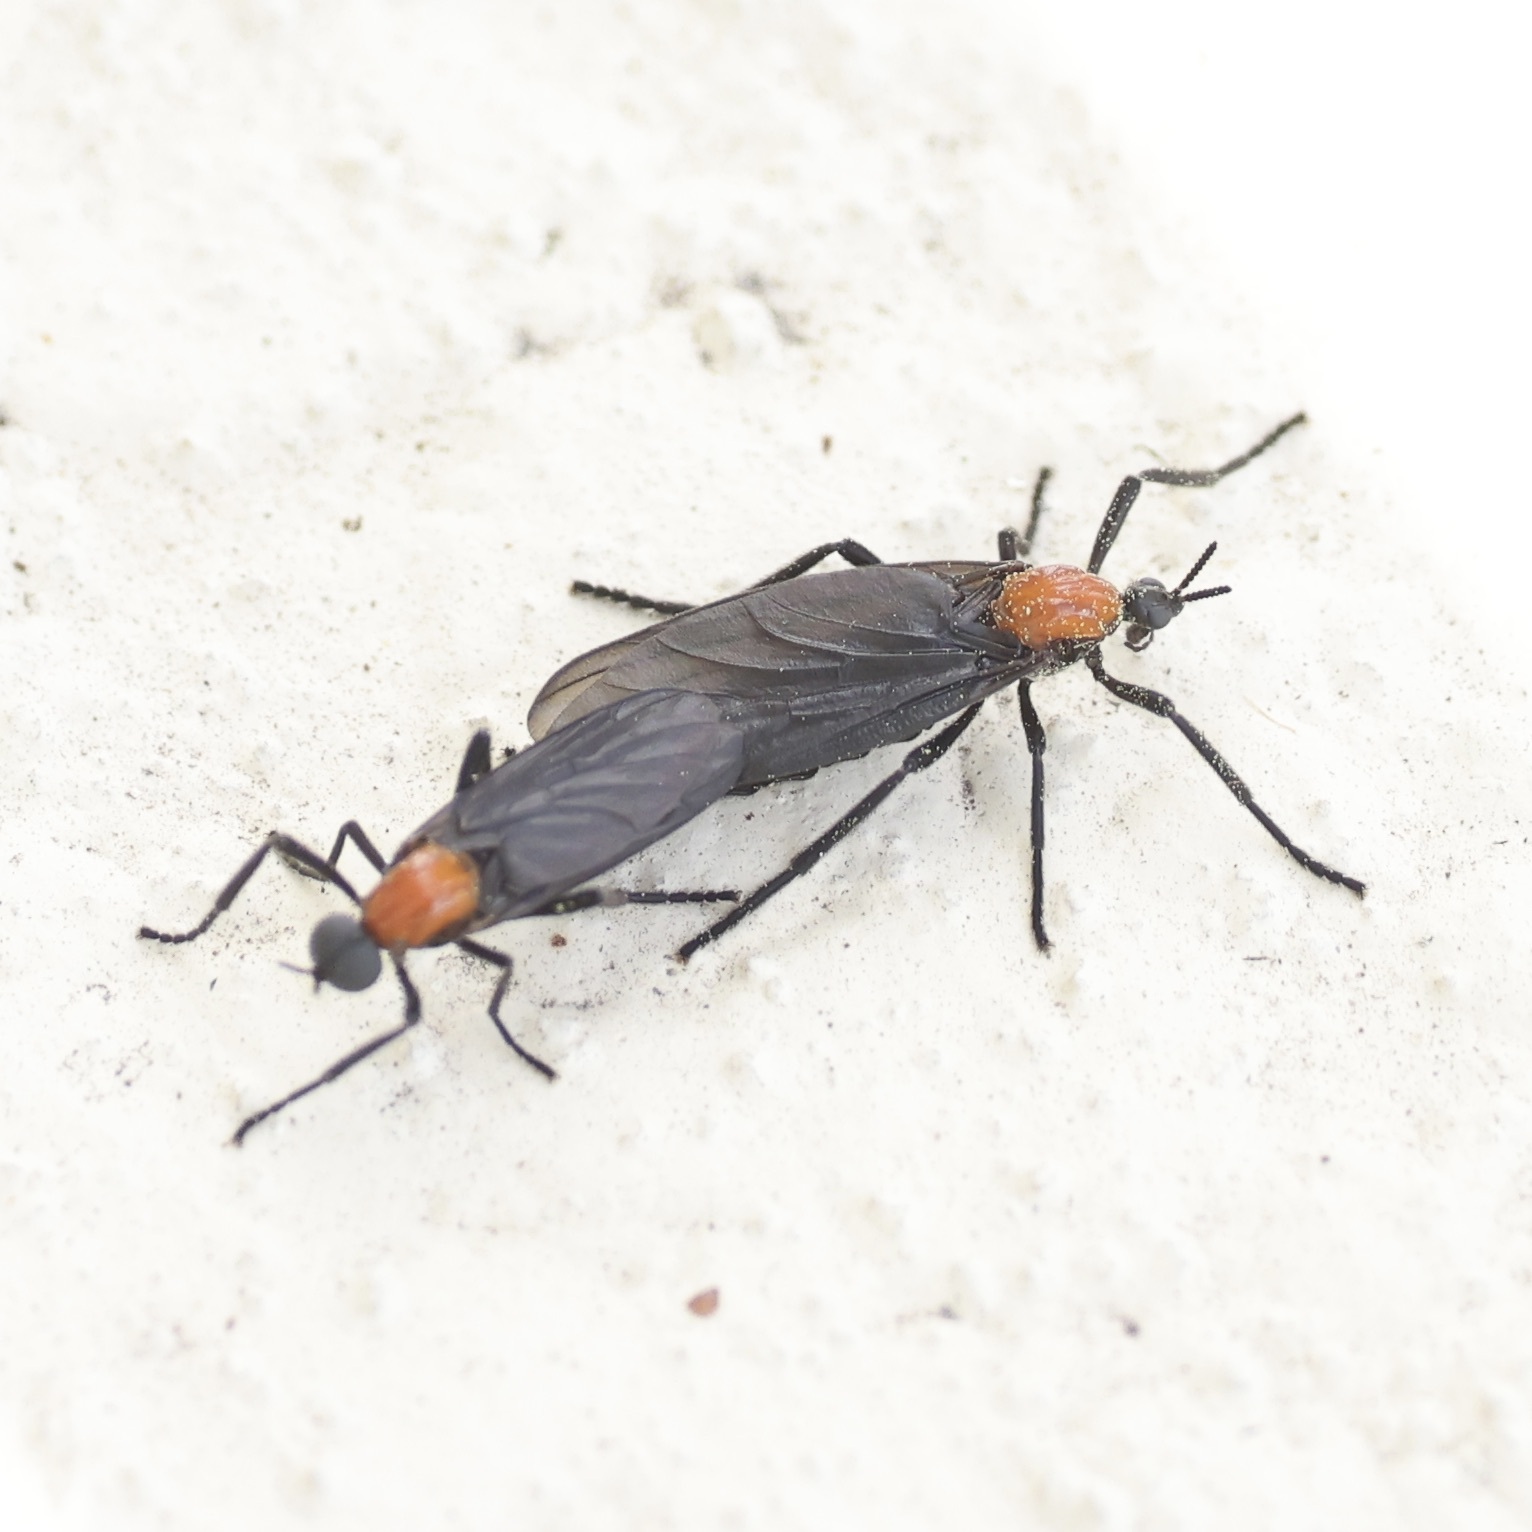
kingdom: Animalia
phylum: Arthropoda
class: Insecta
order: Diptera
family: Bibionidae
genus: Plecia
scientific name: Plecia nearctica
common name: March fly
